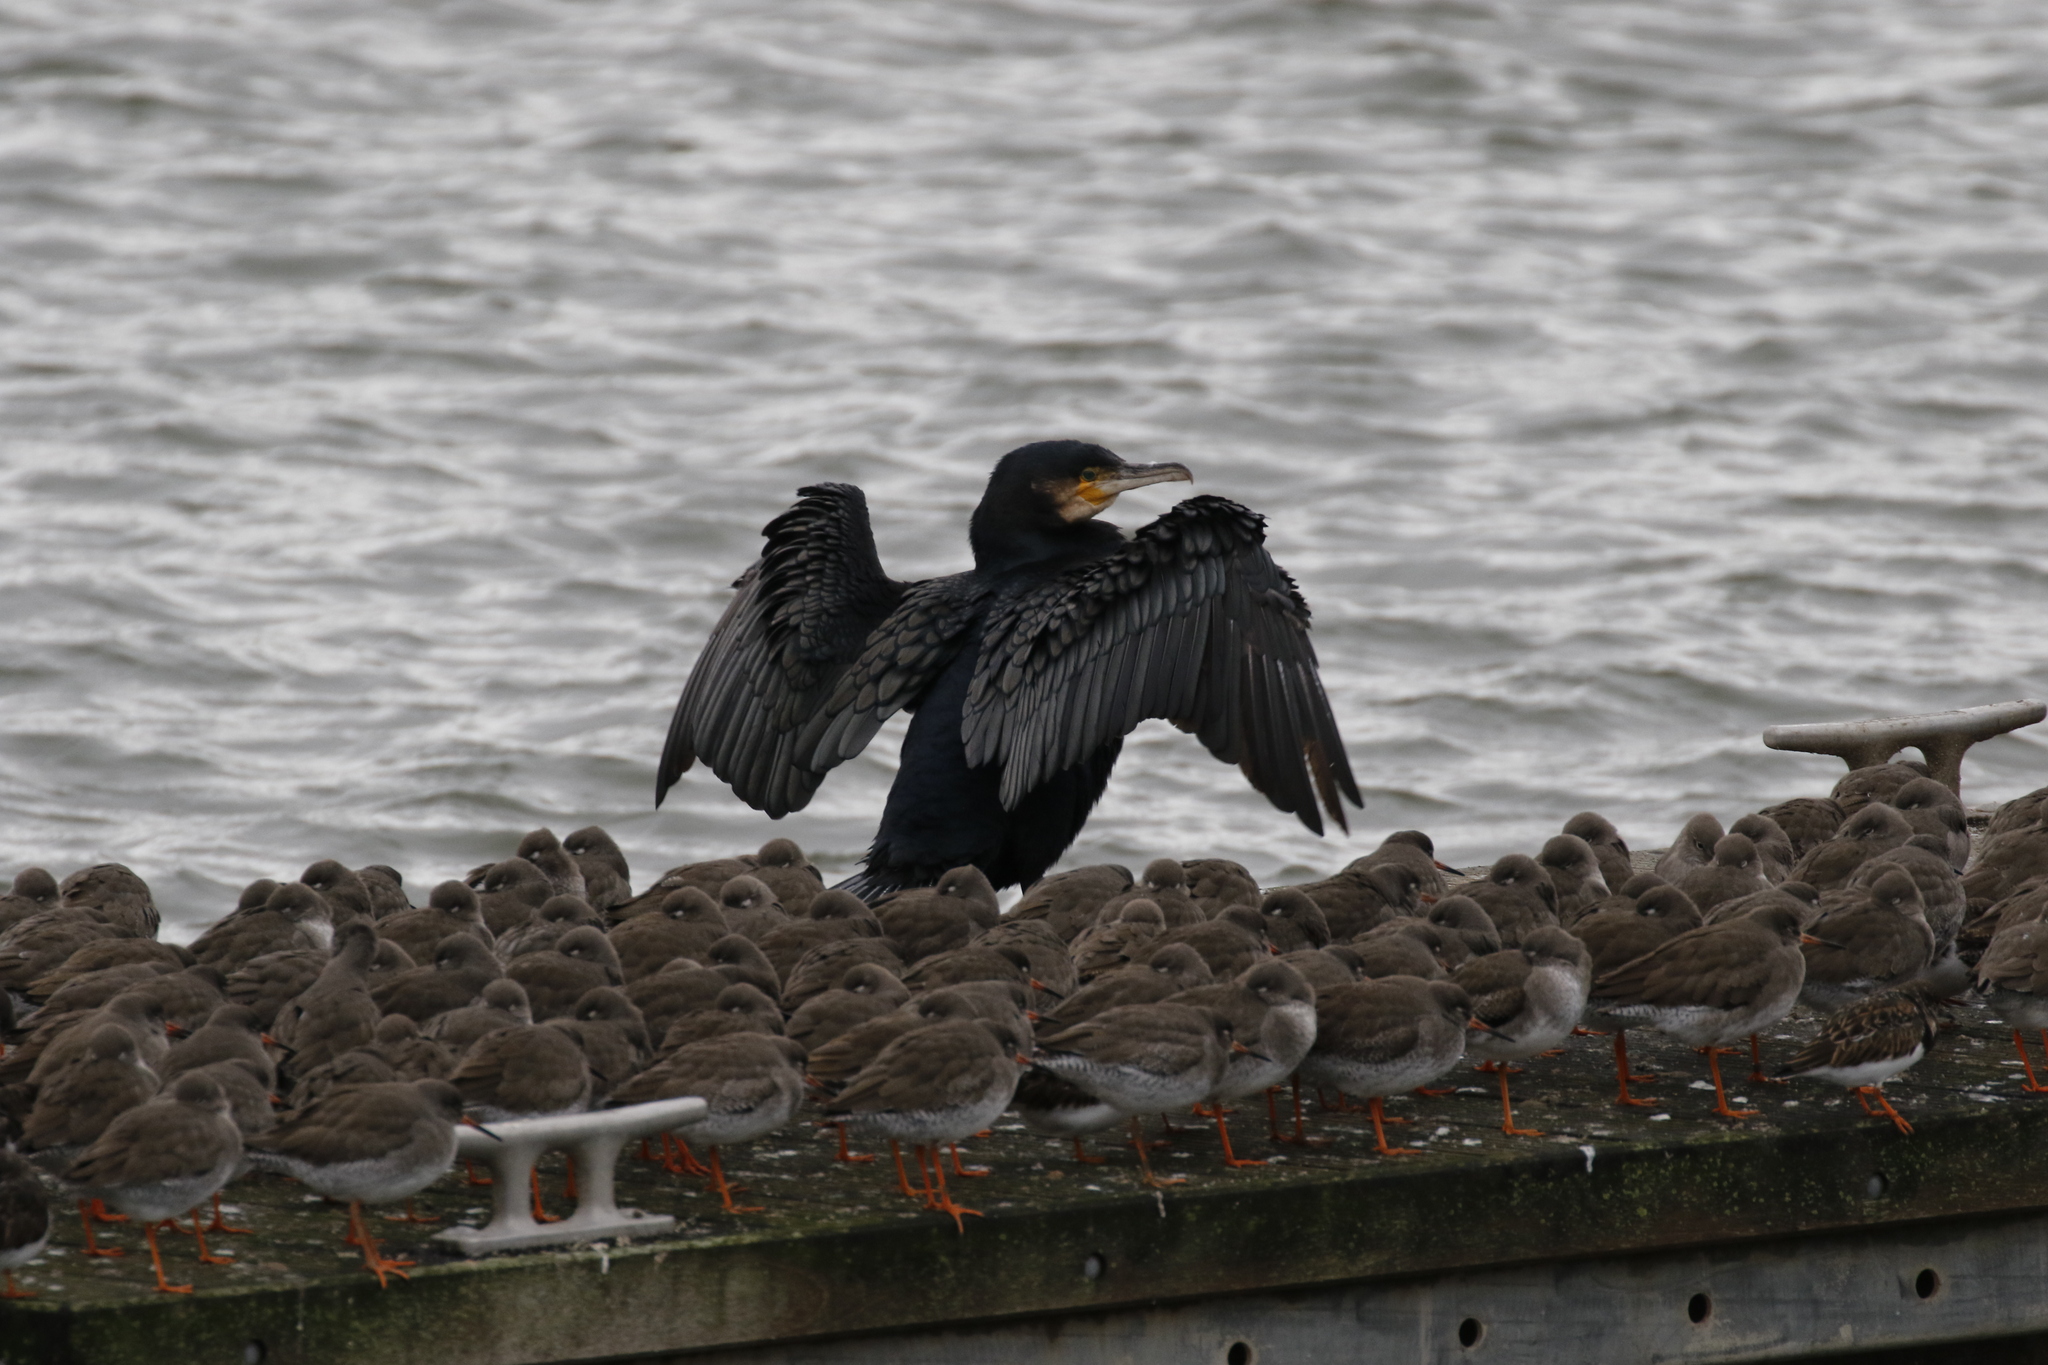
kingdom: Animalia
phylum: Chordata
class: Aves
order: Suliformes
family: Phalacrocoracidae
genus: Phalacrocorax
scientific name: Phalacrocorax carbo
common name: Great cormorant
